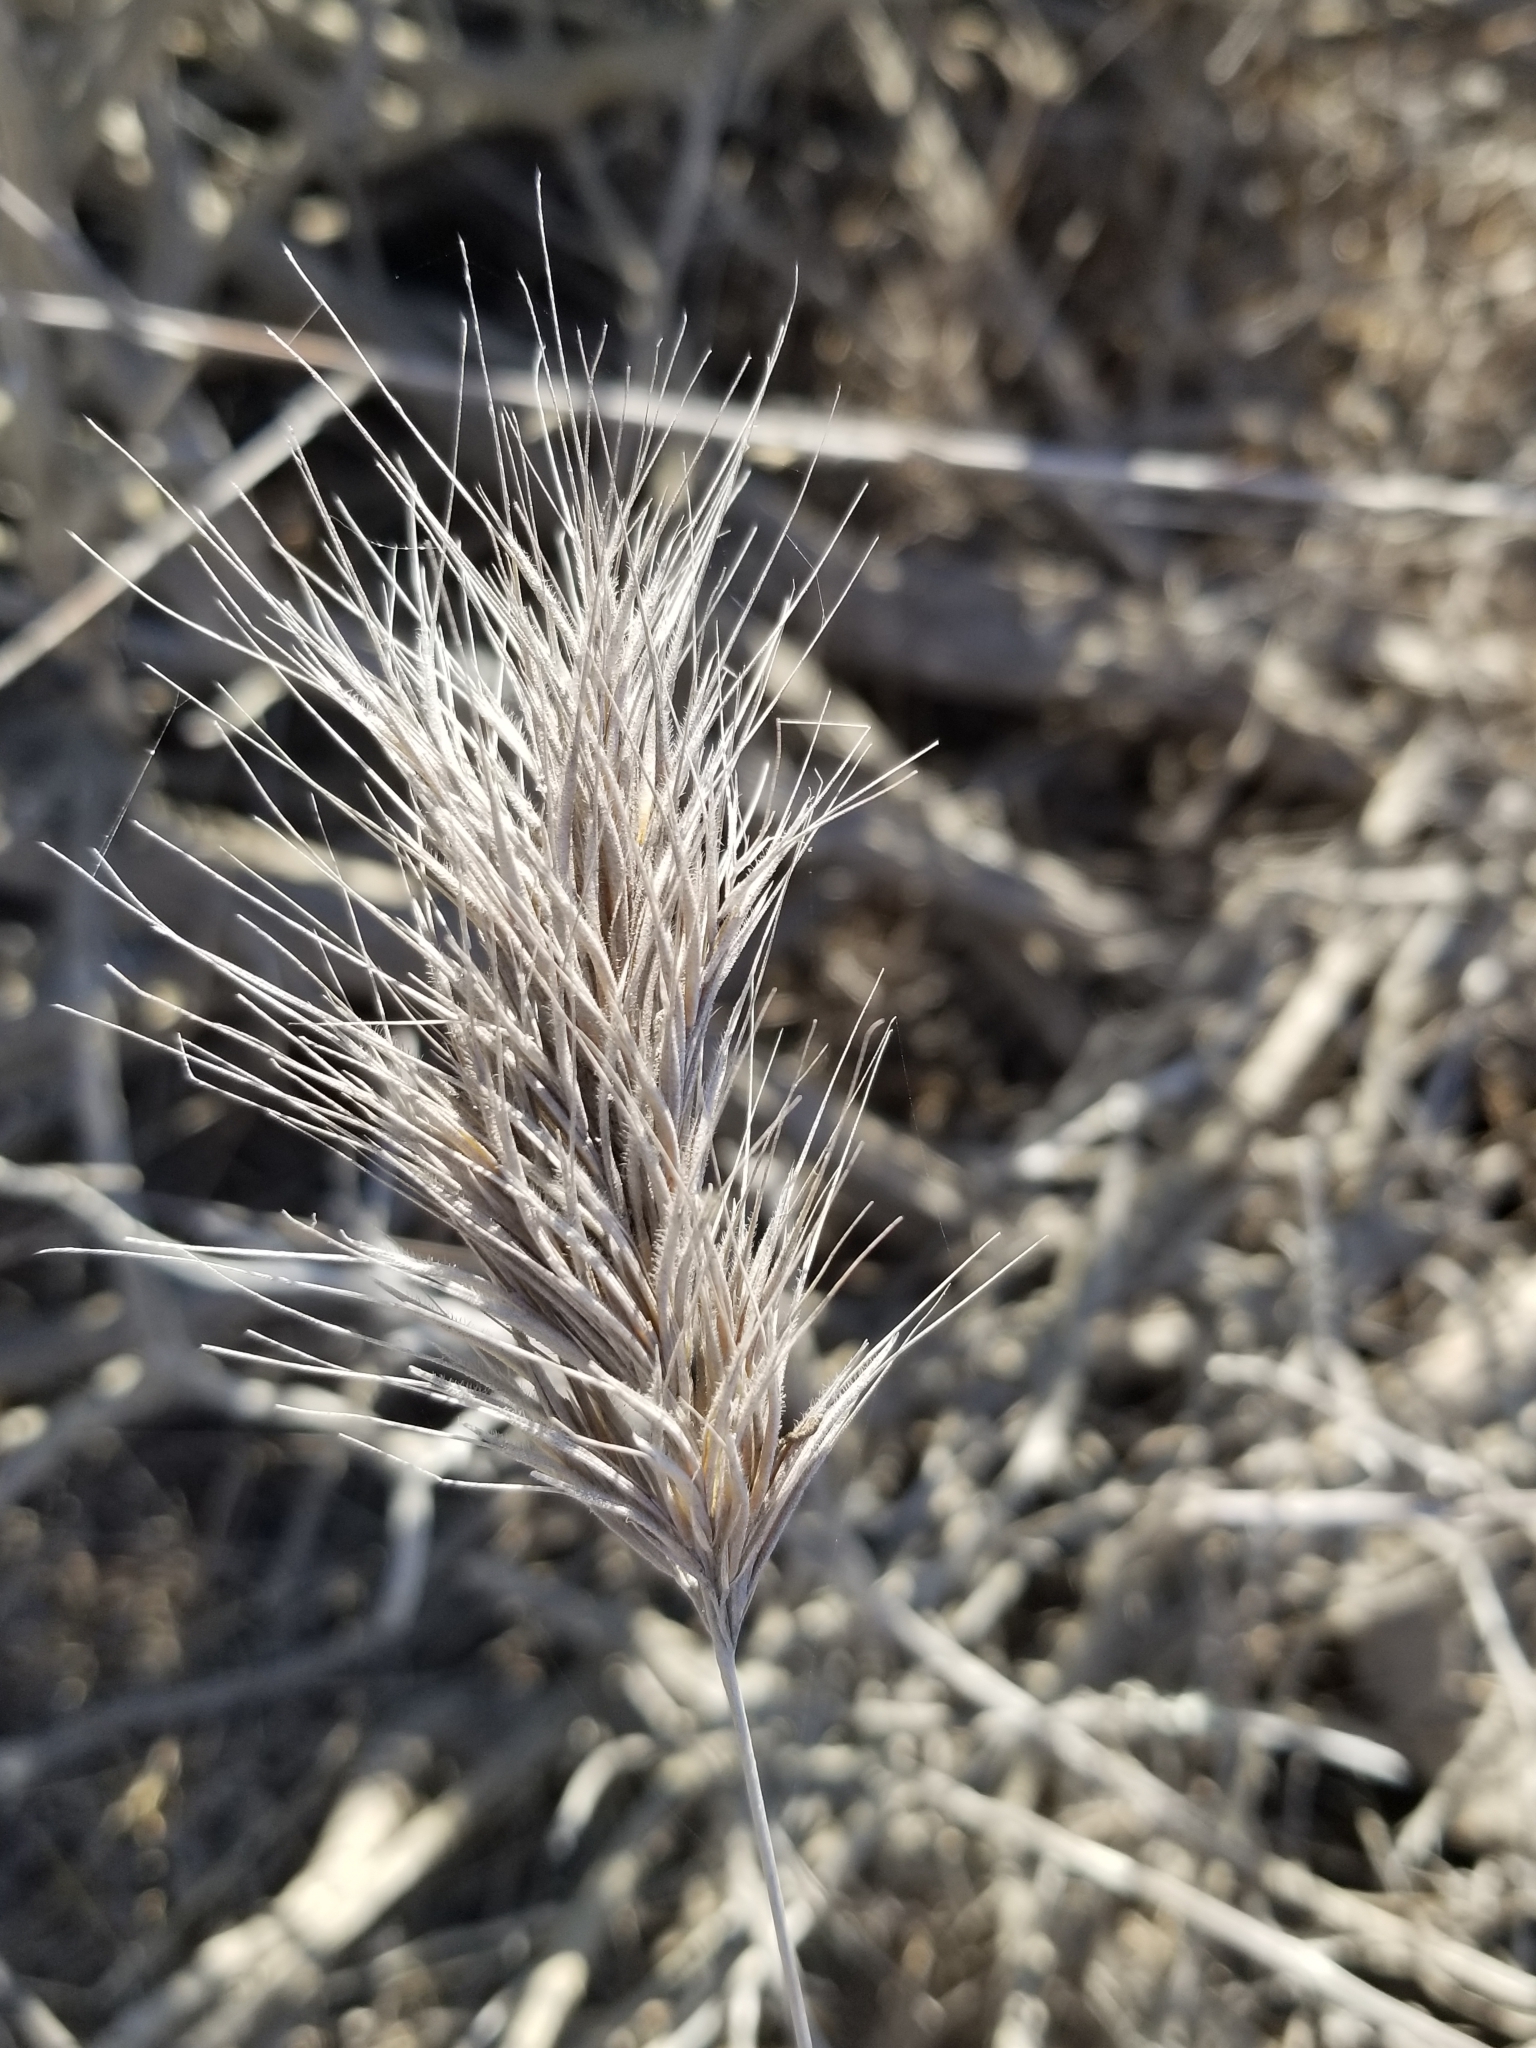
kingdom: Plantae
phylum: Tracheophyta
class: Liliopsida
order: Poales
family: Poaceae
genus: Bromus
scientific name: Bromus rubens
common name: Red brome
